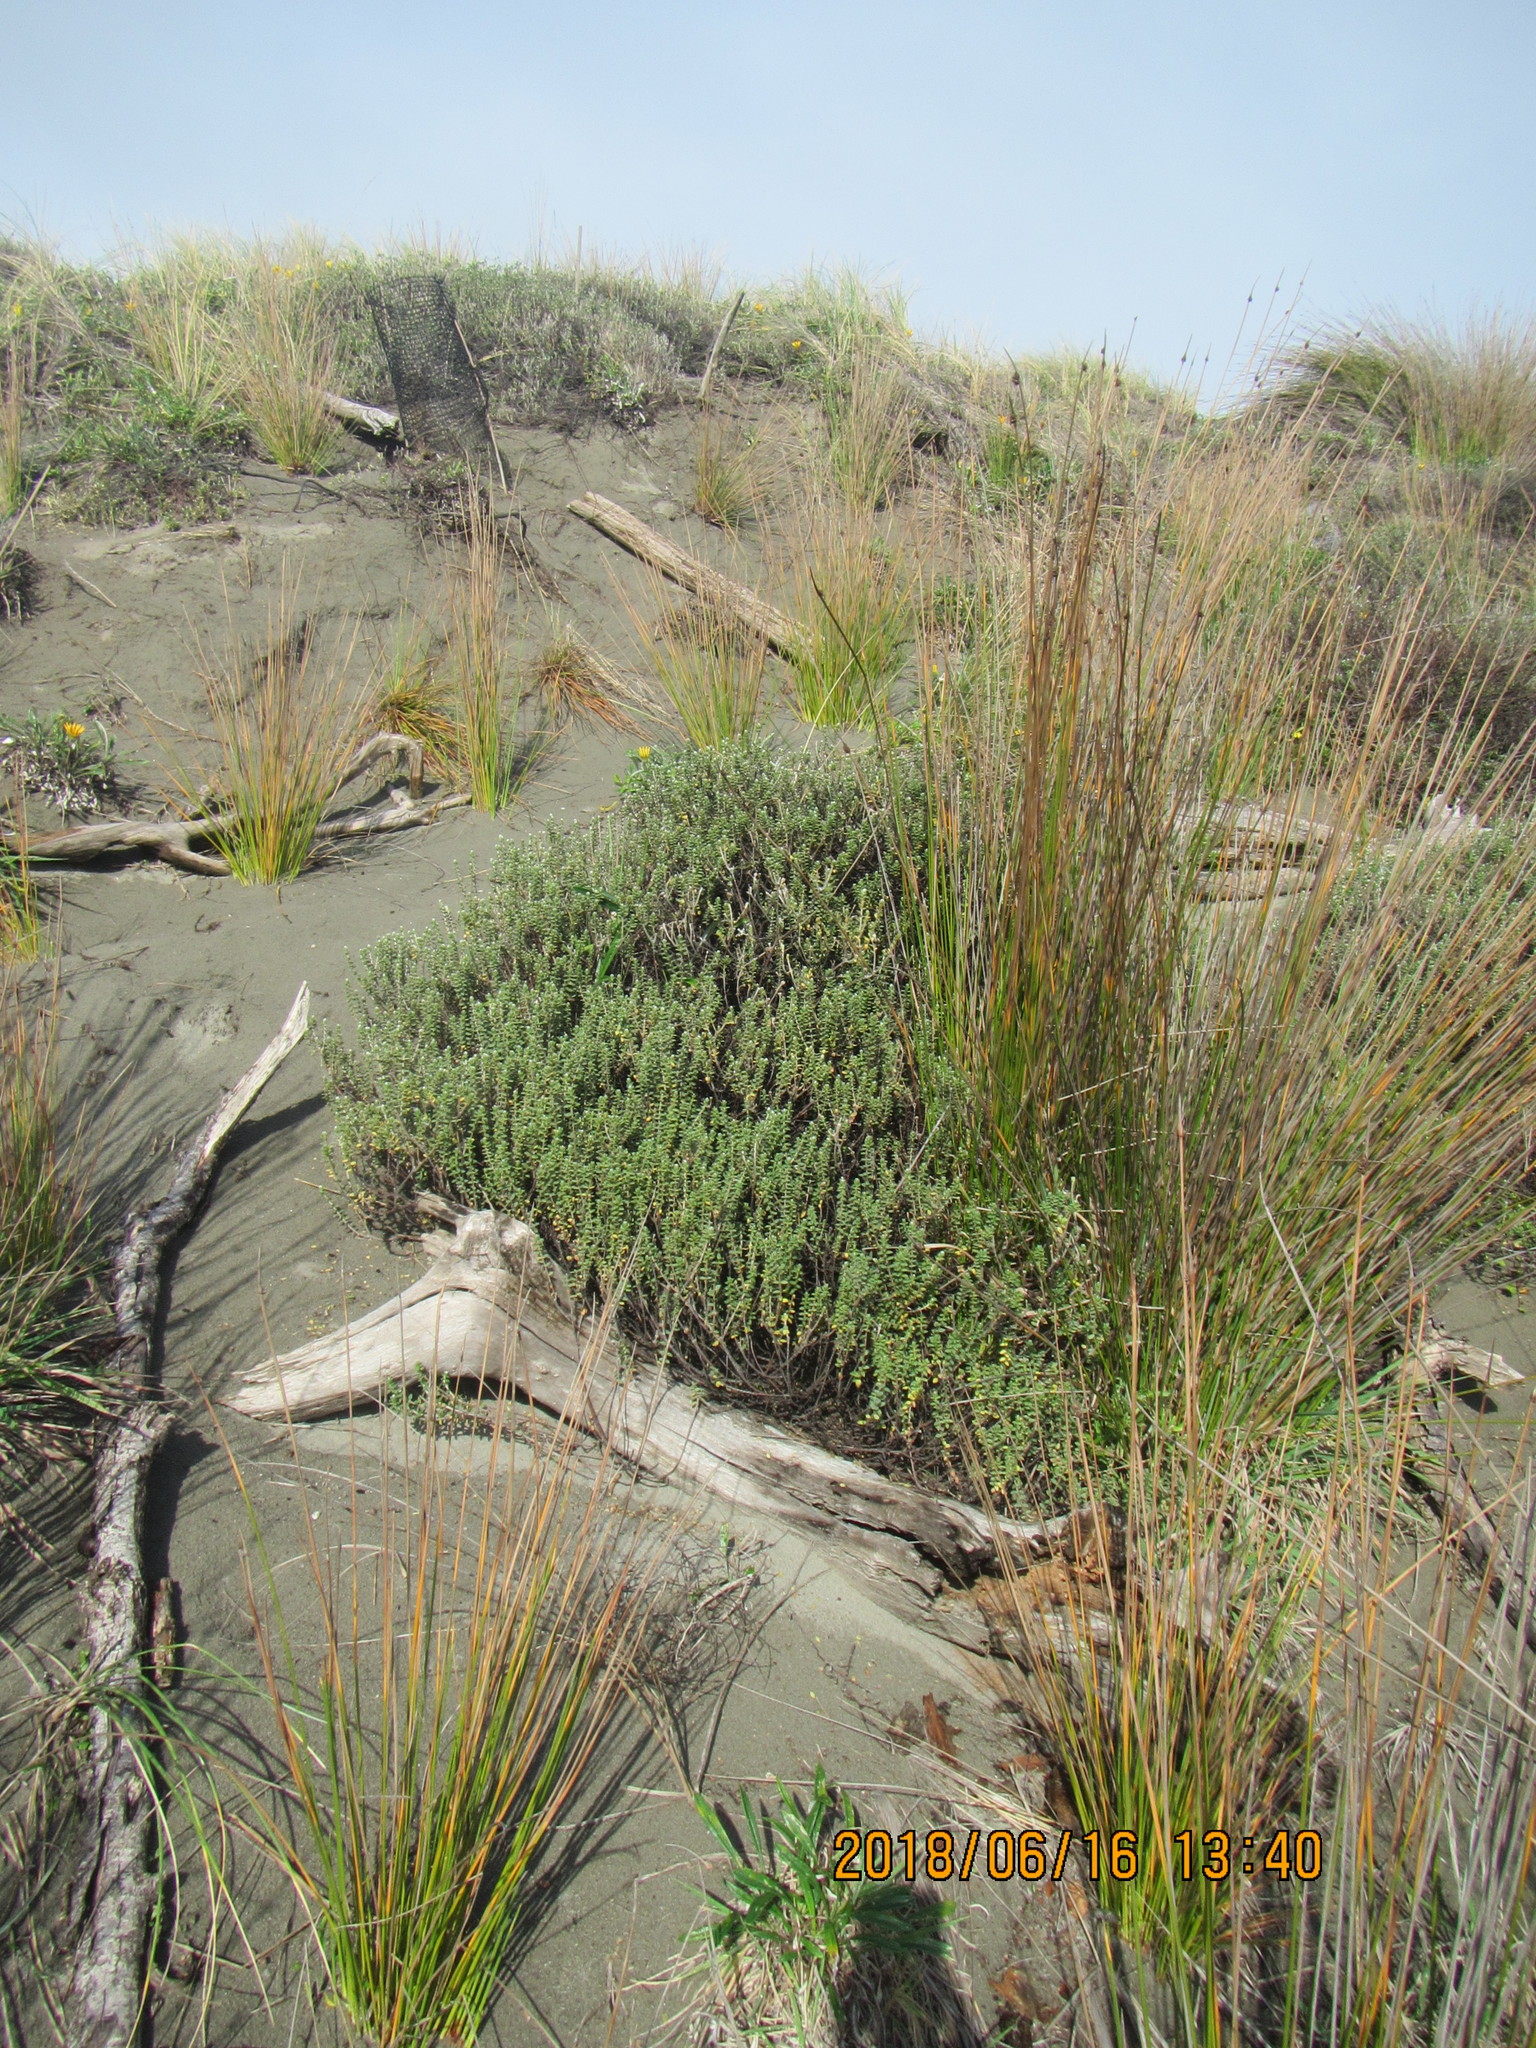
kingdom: Plantae
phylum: Tracheophyta
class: Magnoliopsida
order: Malvales
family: Thymelaeaceae
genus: Pimelea
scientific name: Pimelea villosa
